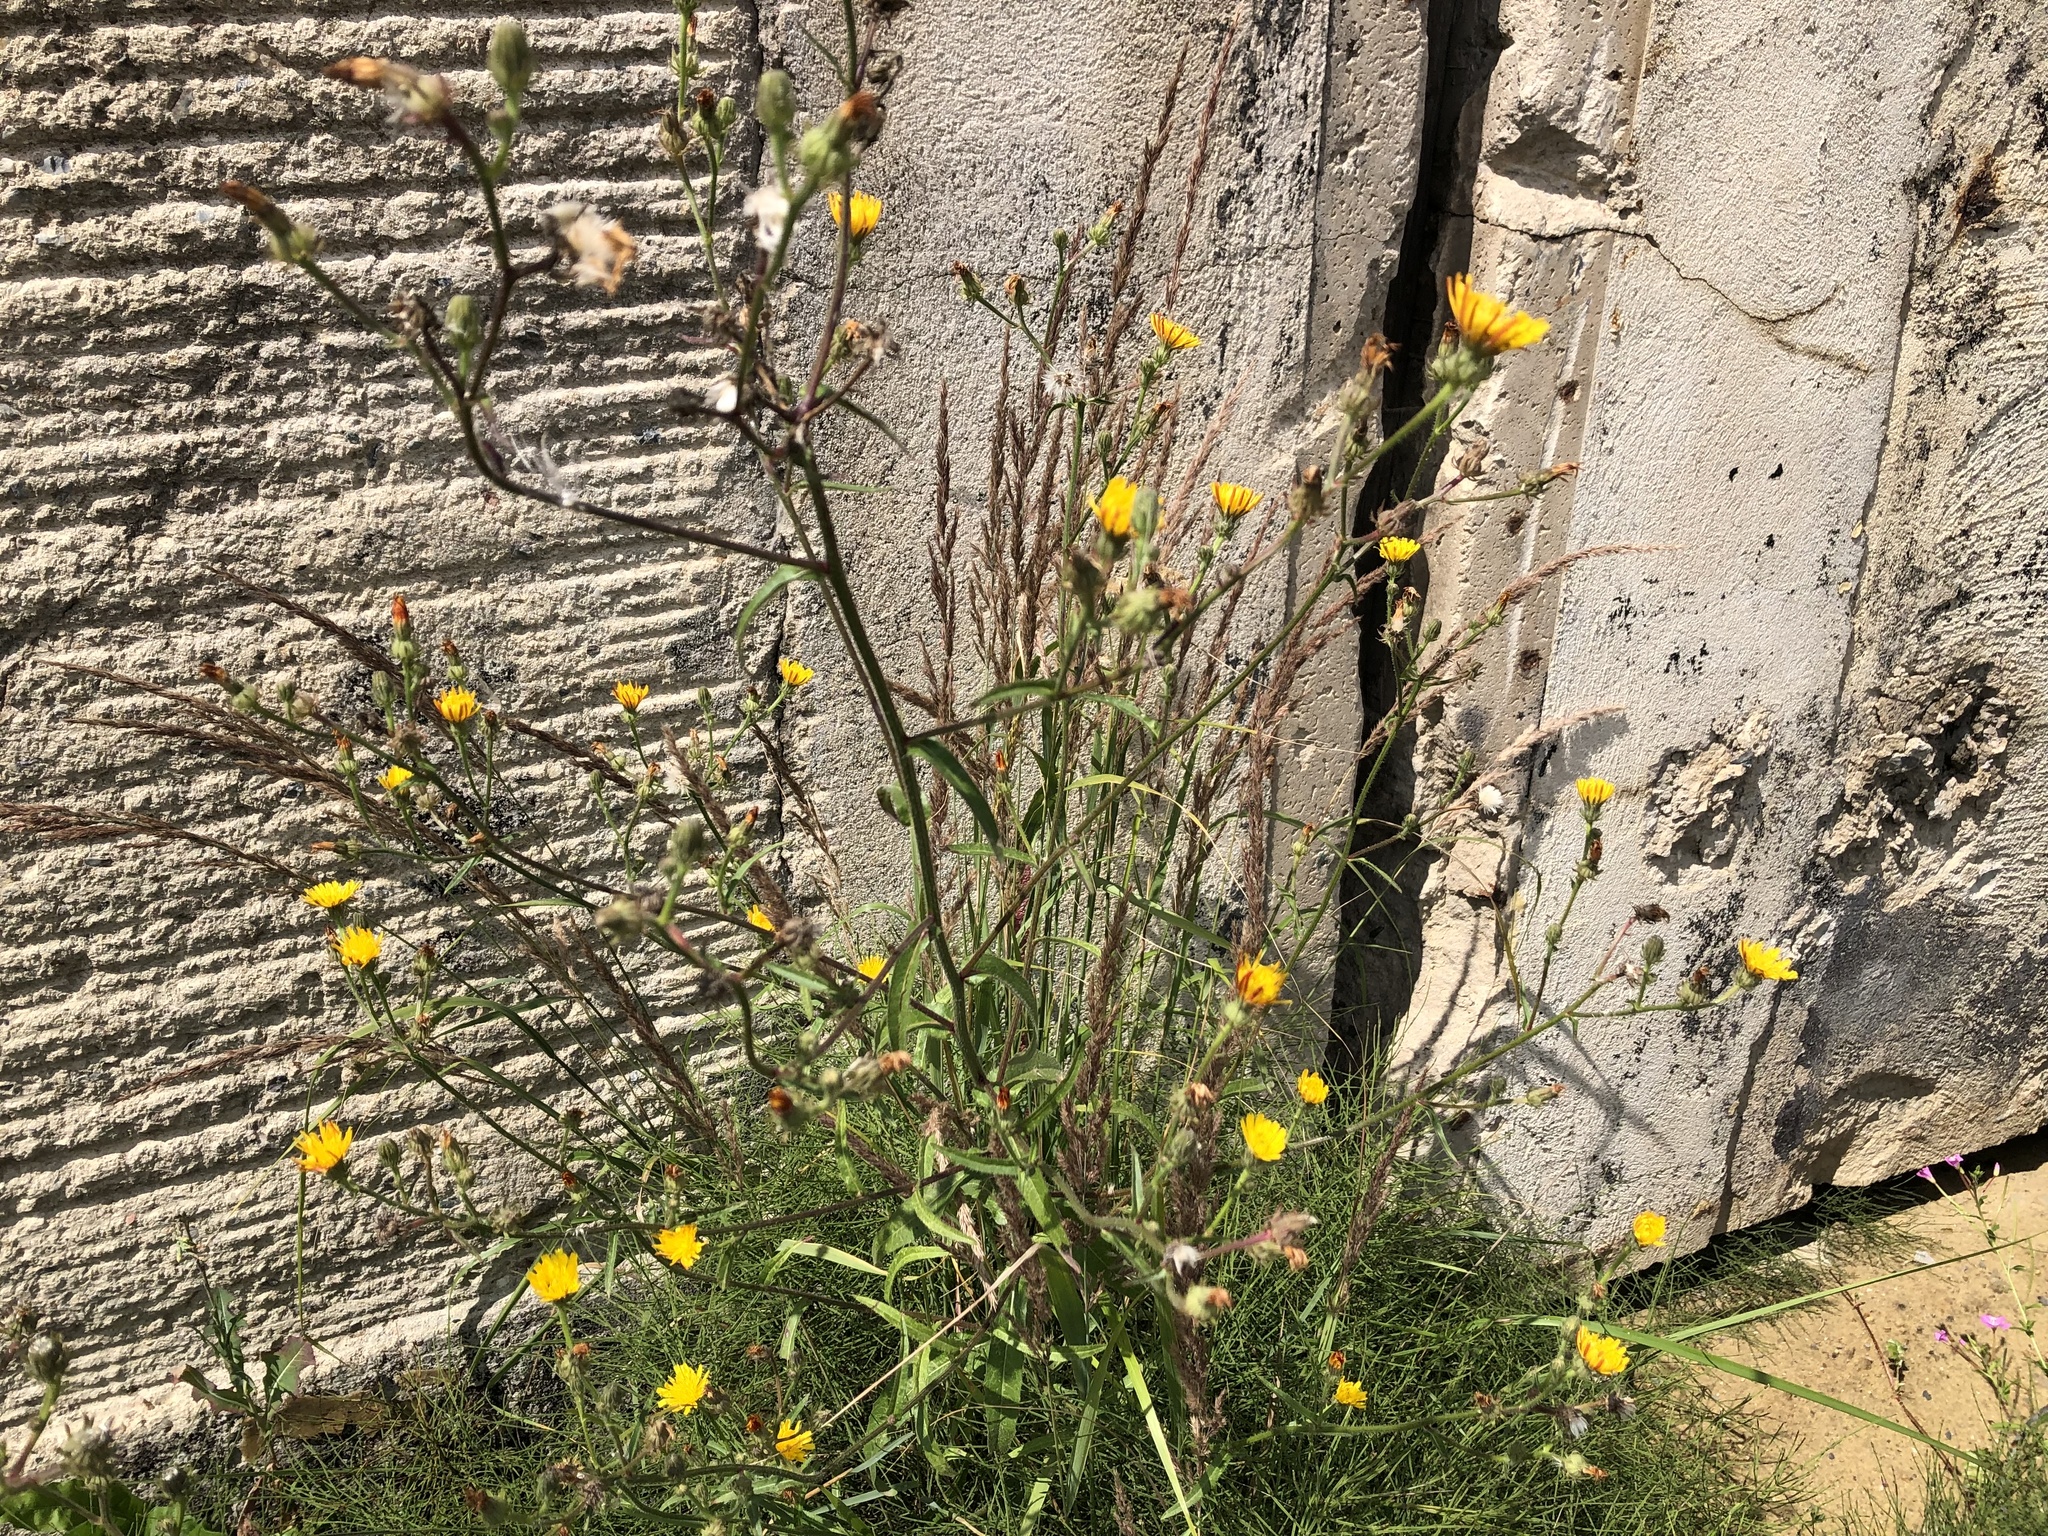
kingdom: Plantae
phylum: Tracheophyta
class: Magnoliopsida
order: Asterales
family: Asteraceae
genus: Picris
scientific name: Picris hieracioides
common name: Hawkweed oxtongue
